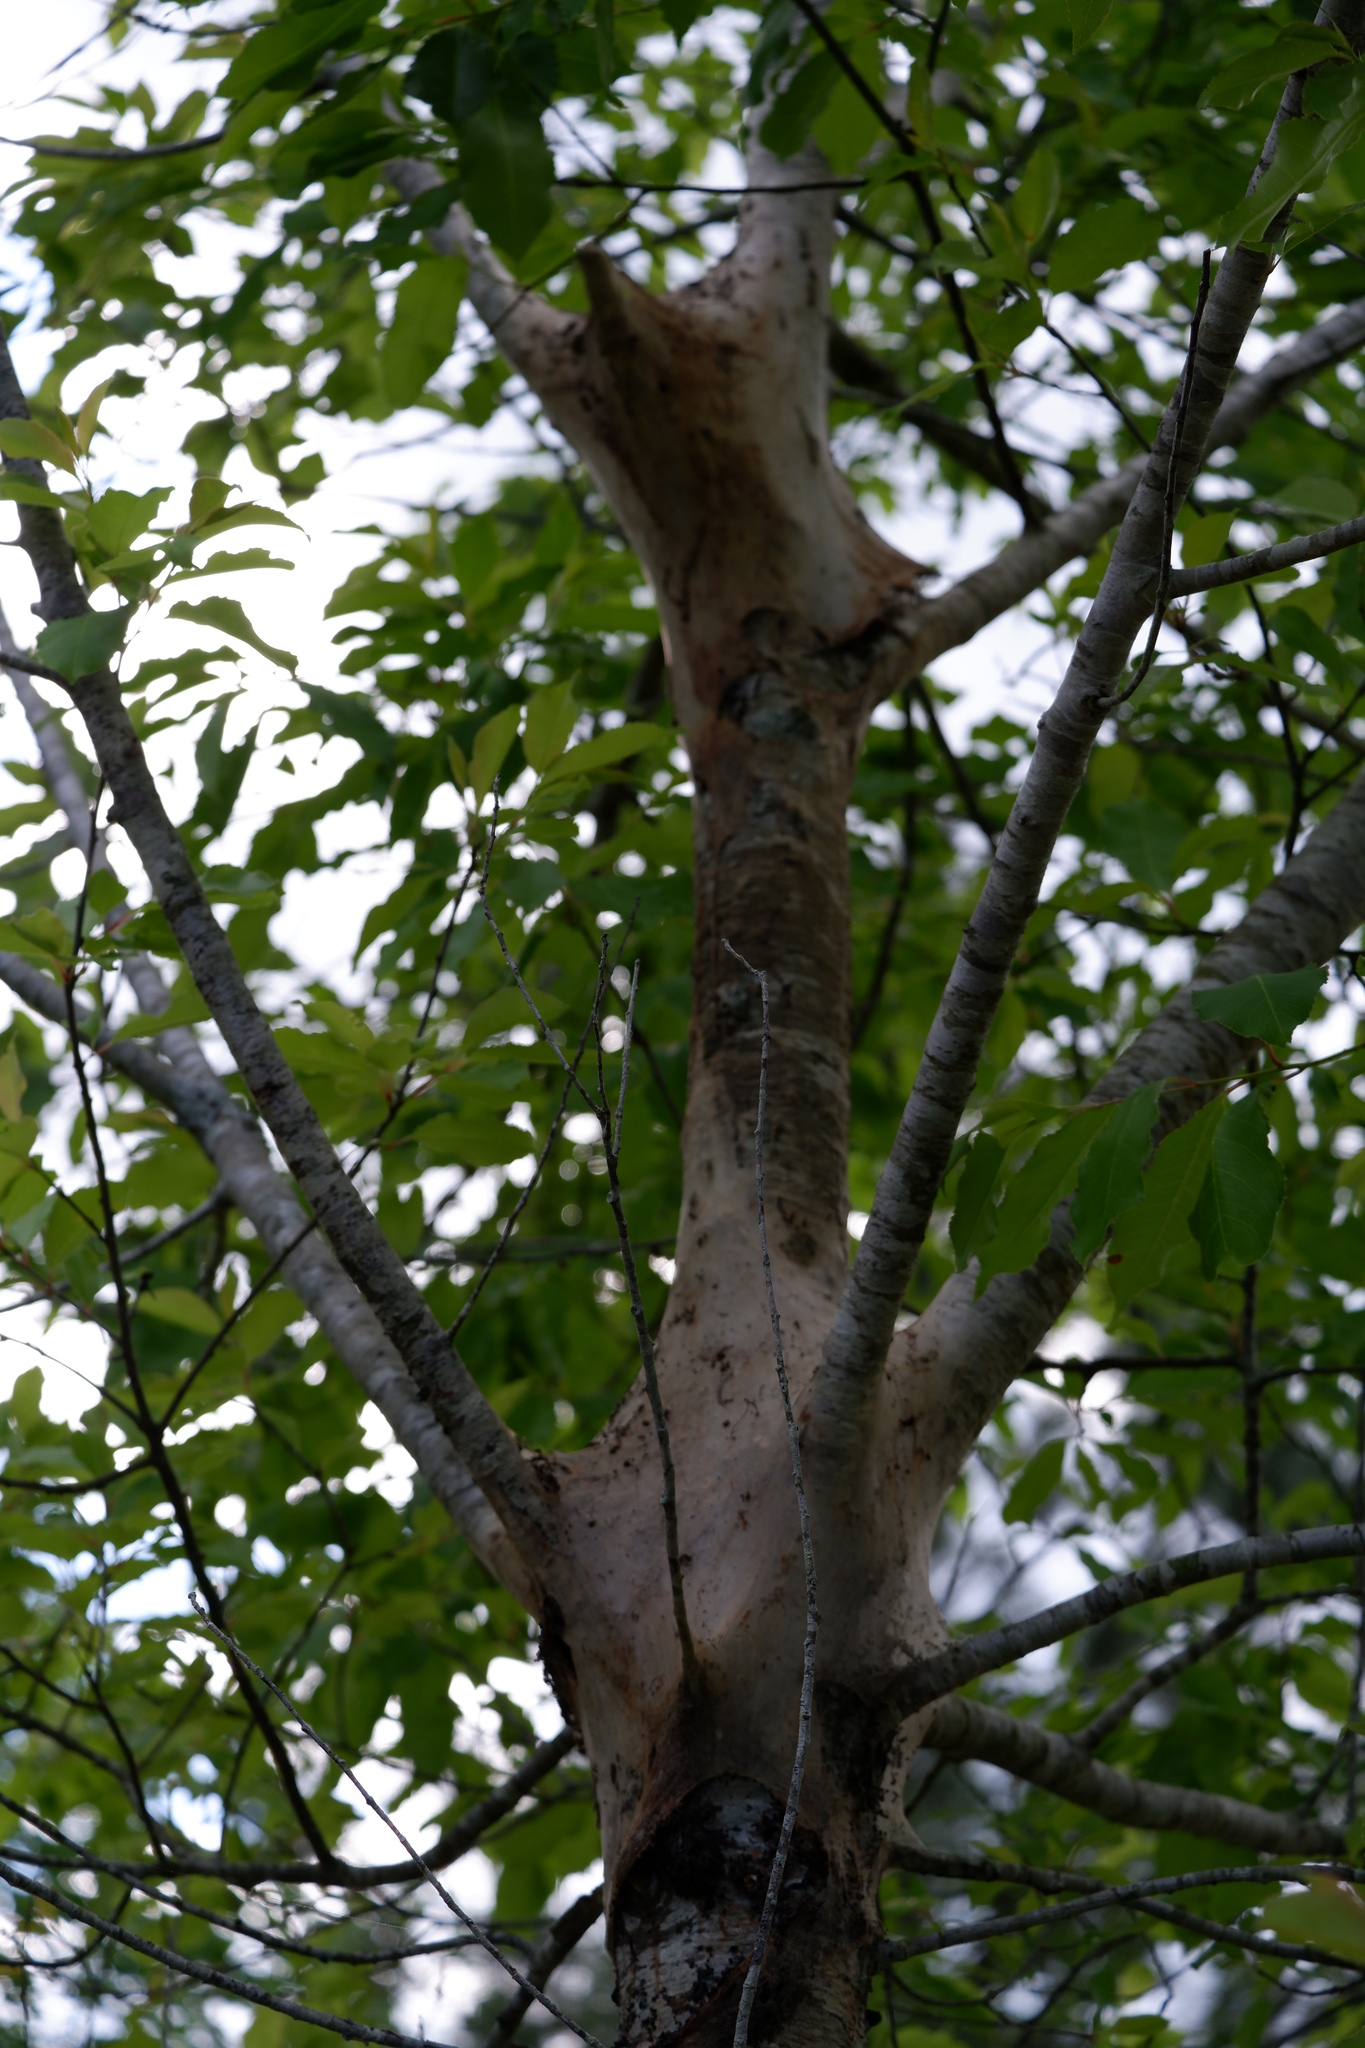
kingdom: Animalia
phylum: Arthropoda
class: Insecta
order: Lepidoptera
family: Lasiocampidae
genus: Malacosoma
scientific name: Malacosoma americana
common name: Eastern tent caterpillar moth
